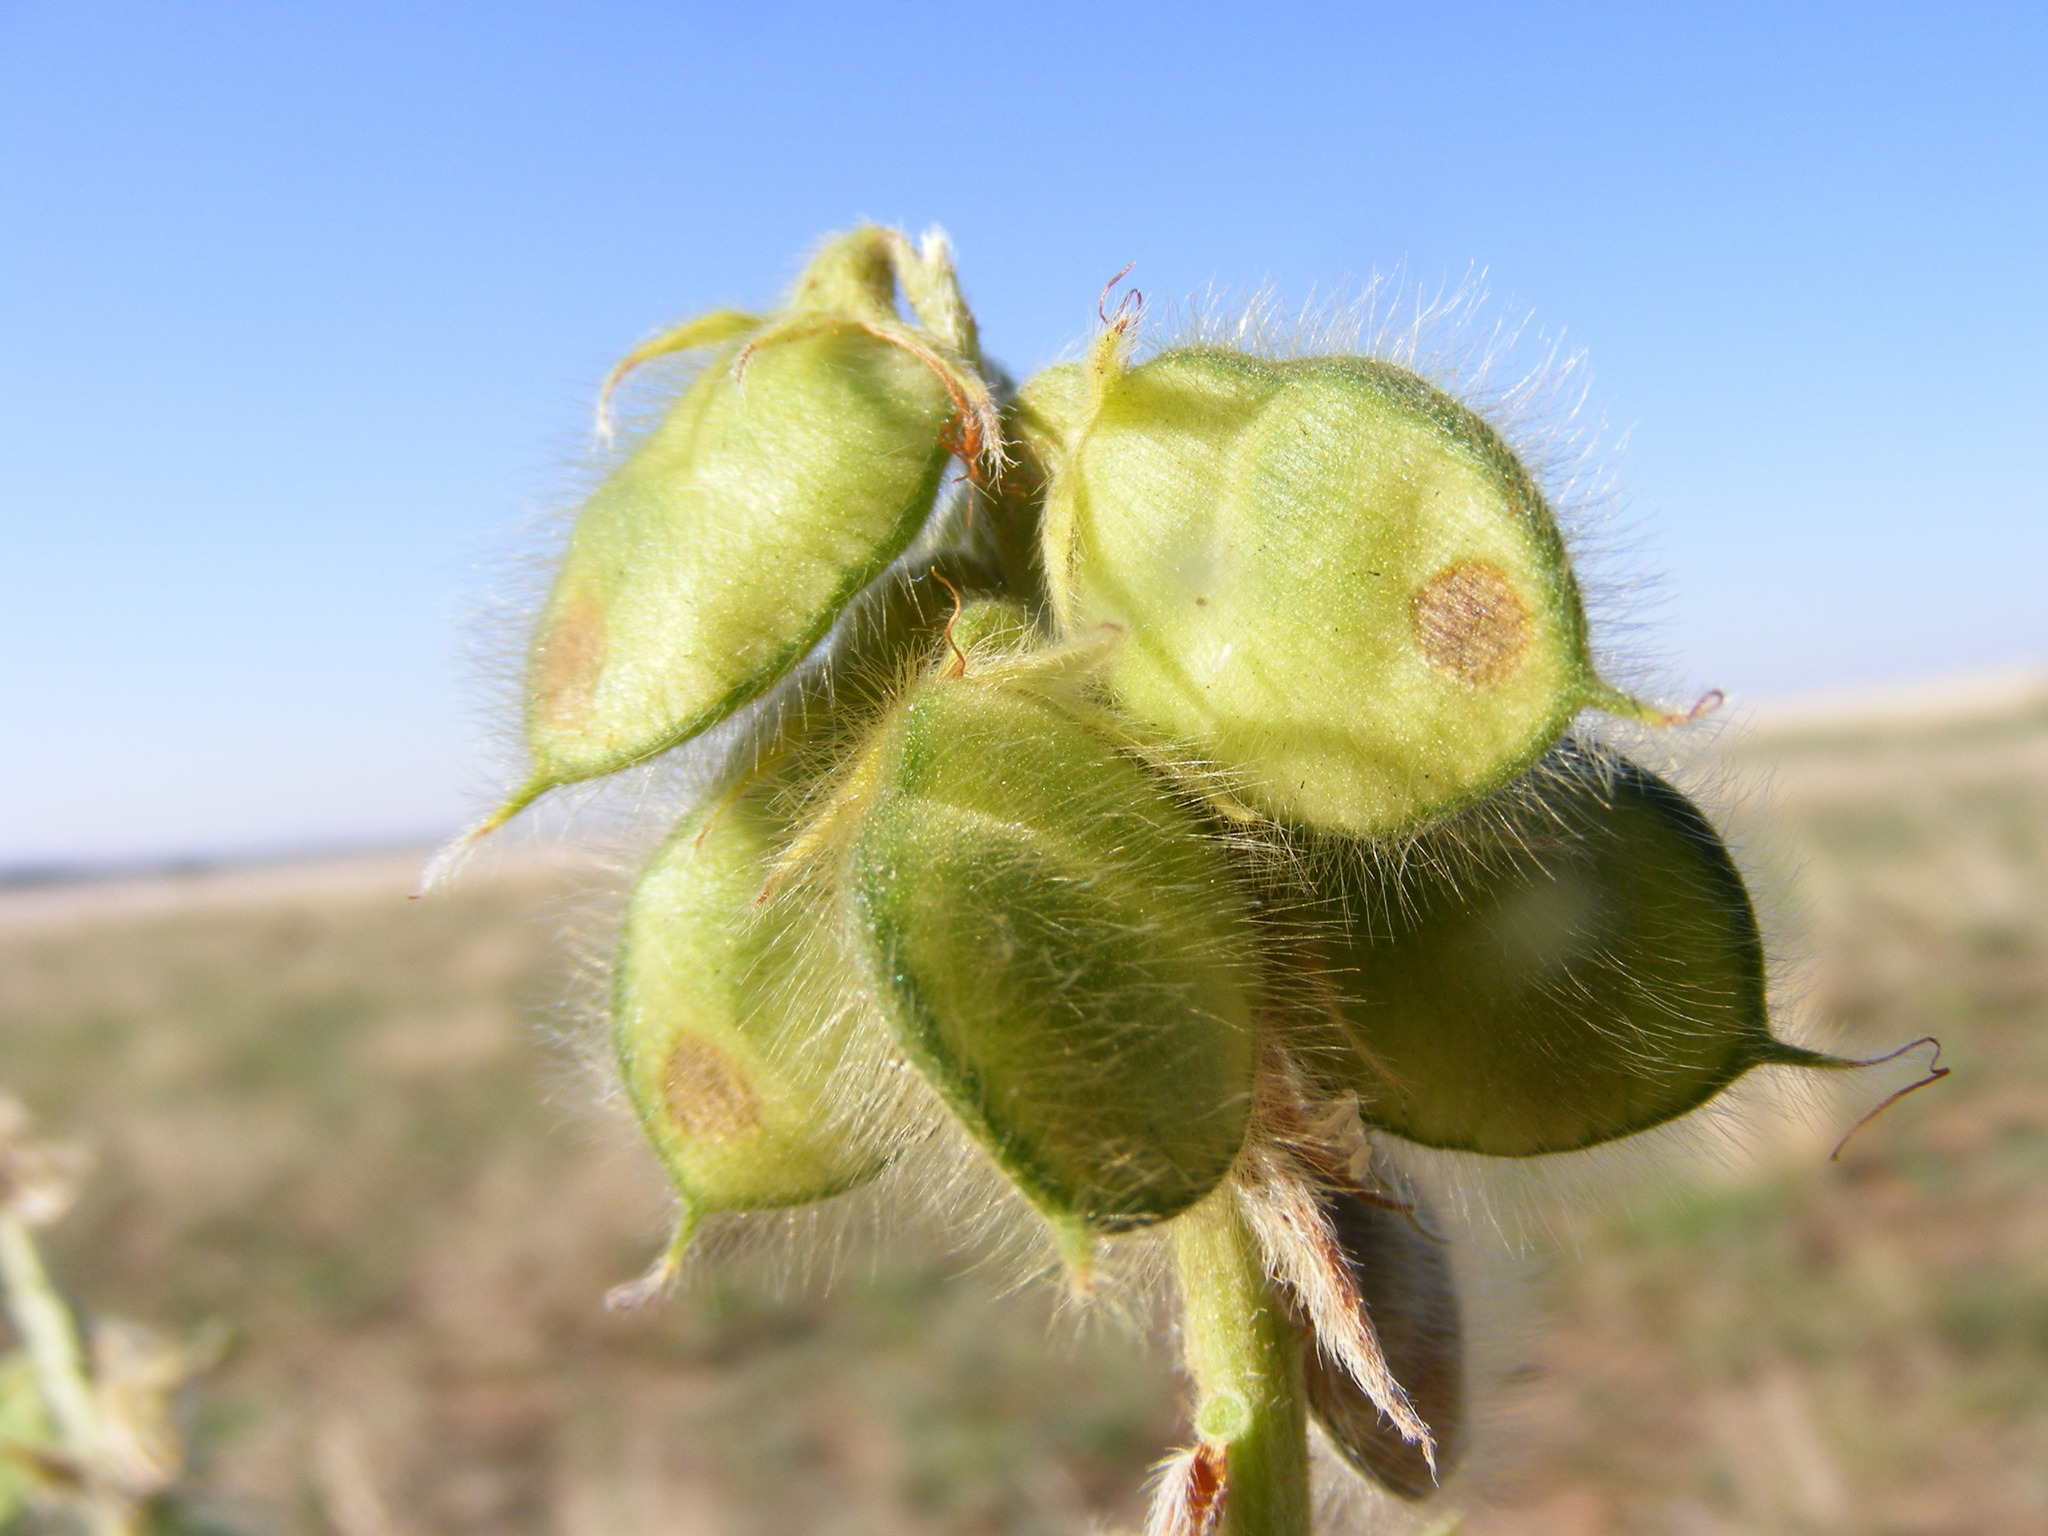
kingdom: Plantae
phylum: Tracheophyta
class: Magnoliopsida
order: Fabales
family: Fabaceae
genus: Eriosema
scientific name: Eriosema burkei
